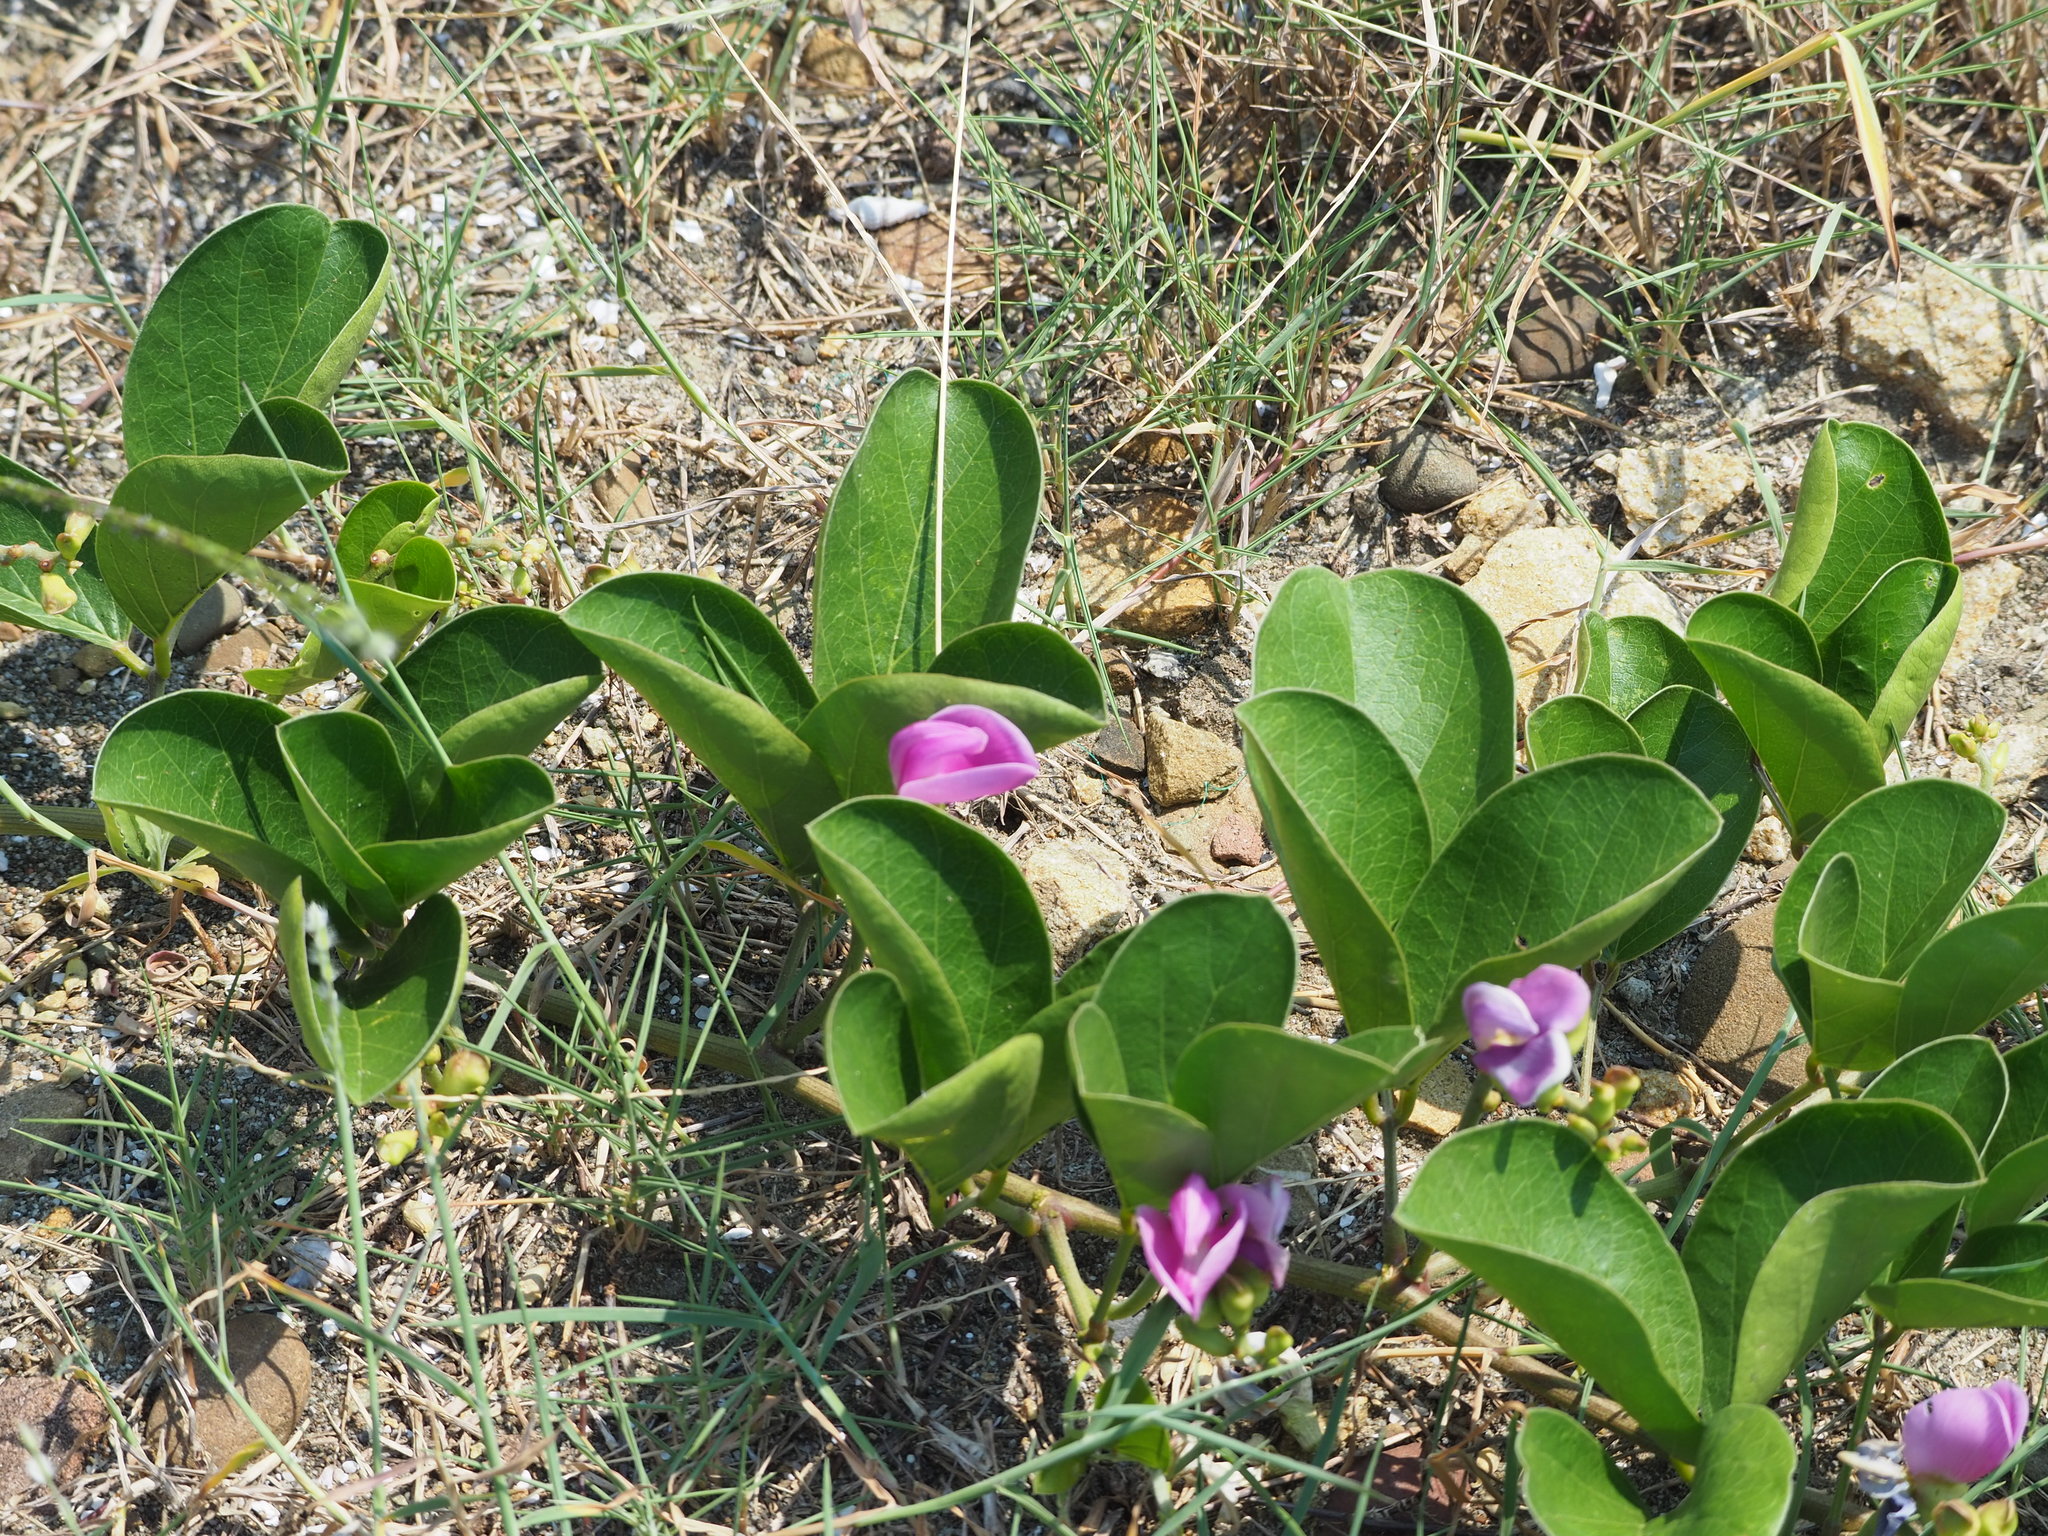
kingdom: Plantae
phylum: Tracheophyta
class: Magnoliopsida
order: Fabales
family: Fabaceae
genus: Canavalia
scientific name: Canavalia rosea
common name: Beach-bean
